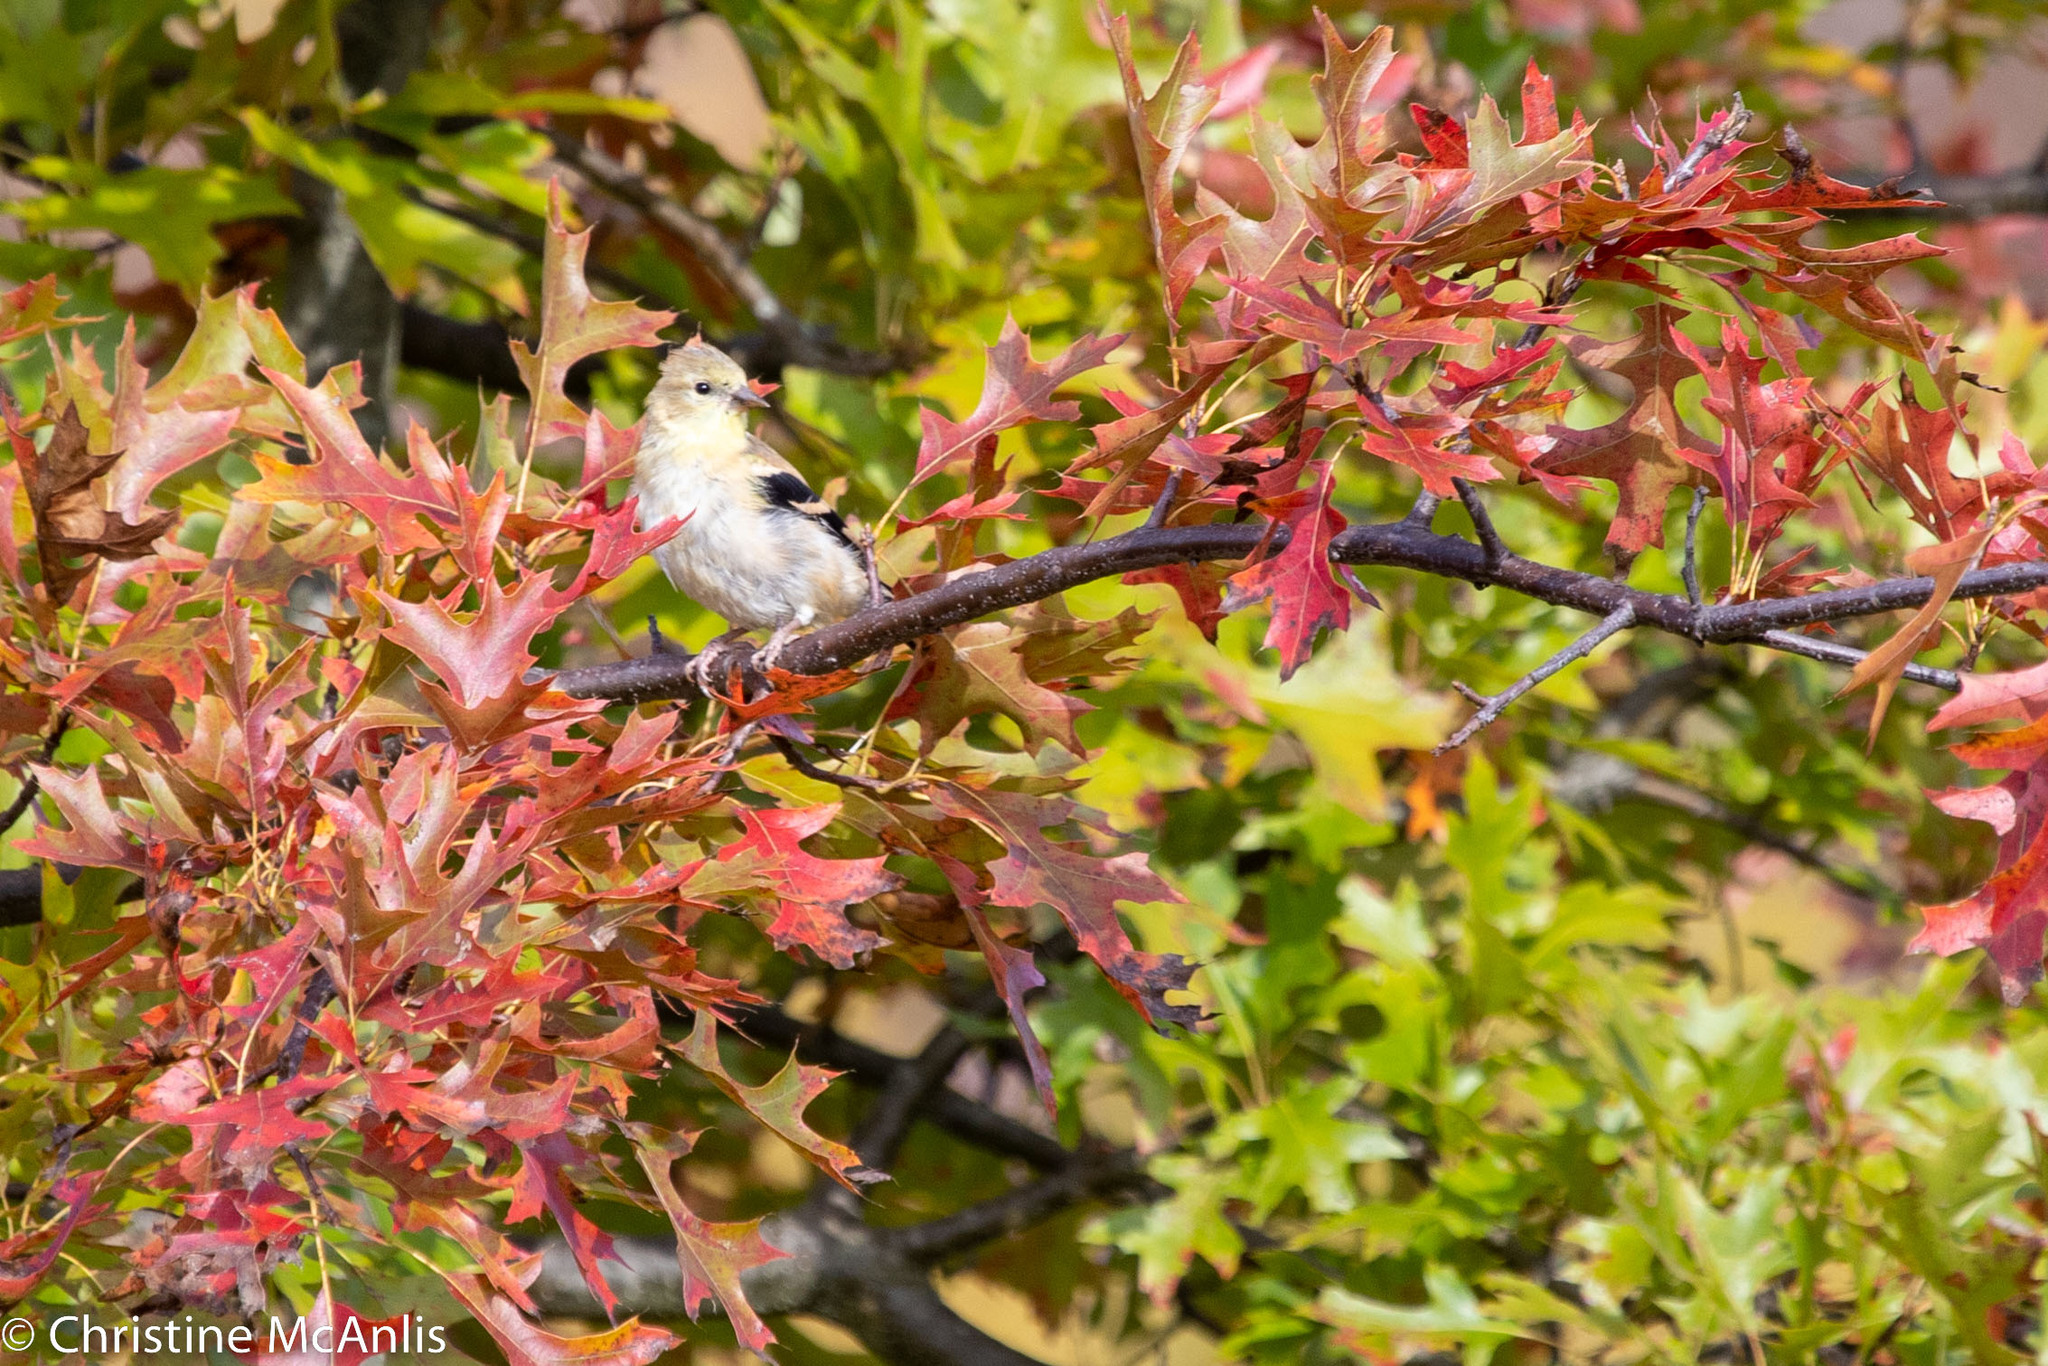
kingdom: Animalia
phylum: Chordata
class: Aves
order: Passeriformes
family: Fringillidae
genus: Spinus
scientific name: Spinus tristis
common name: American goldfinch
